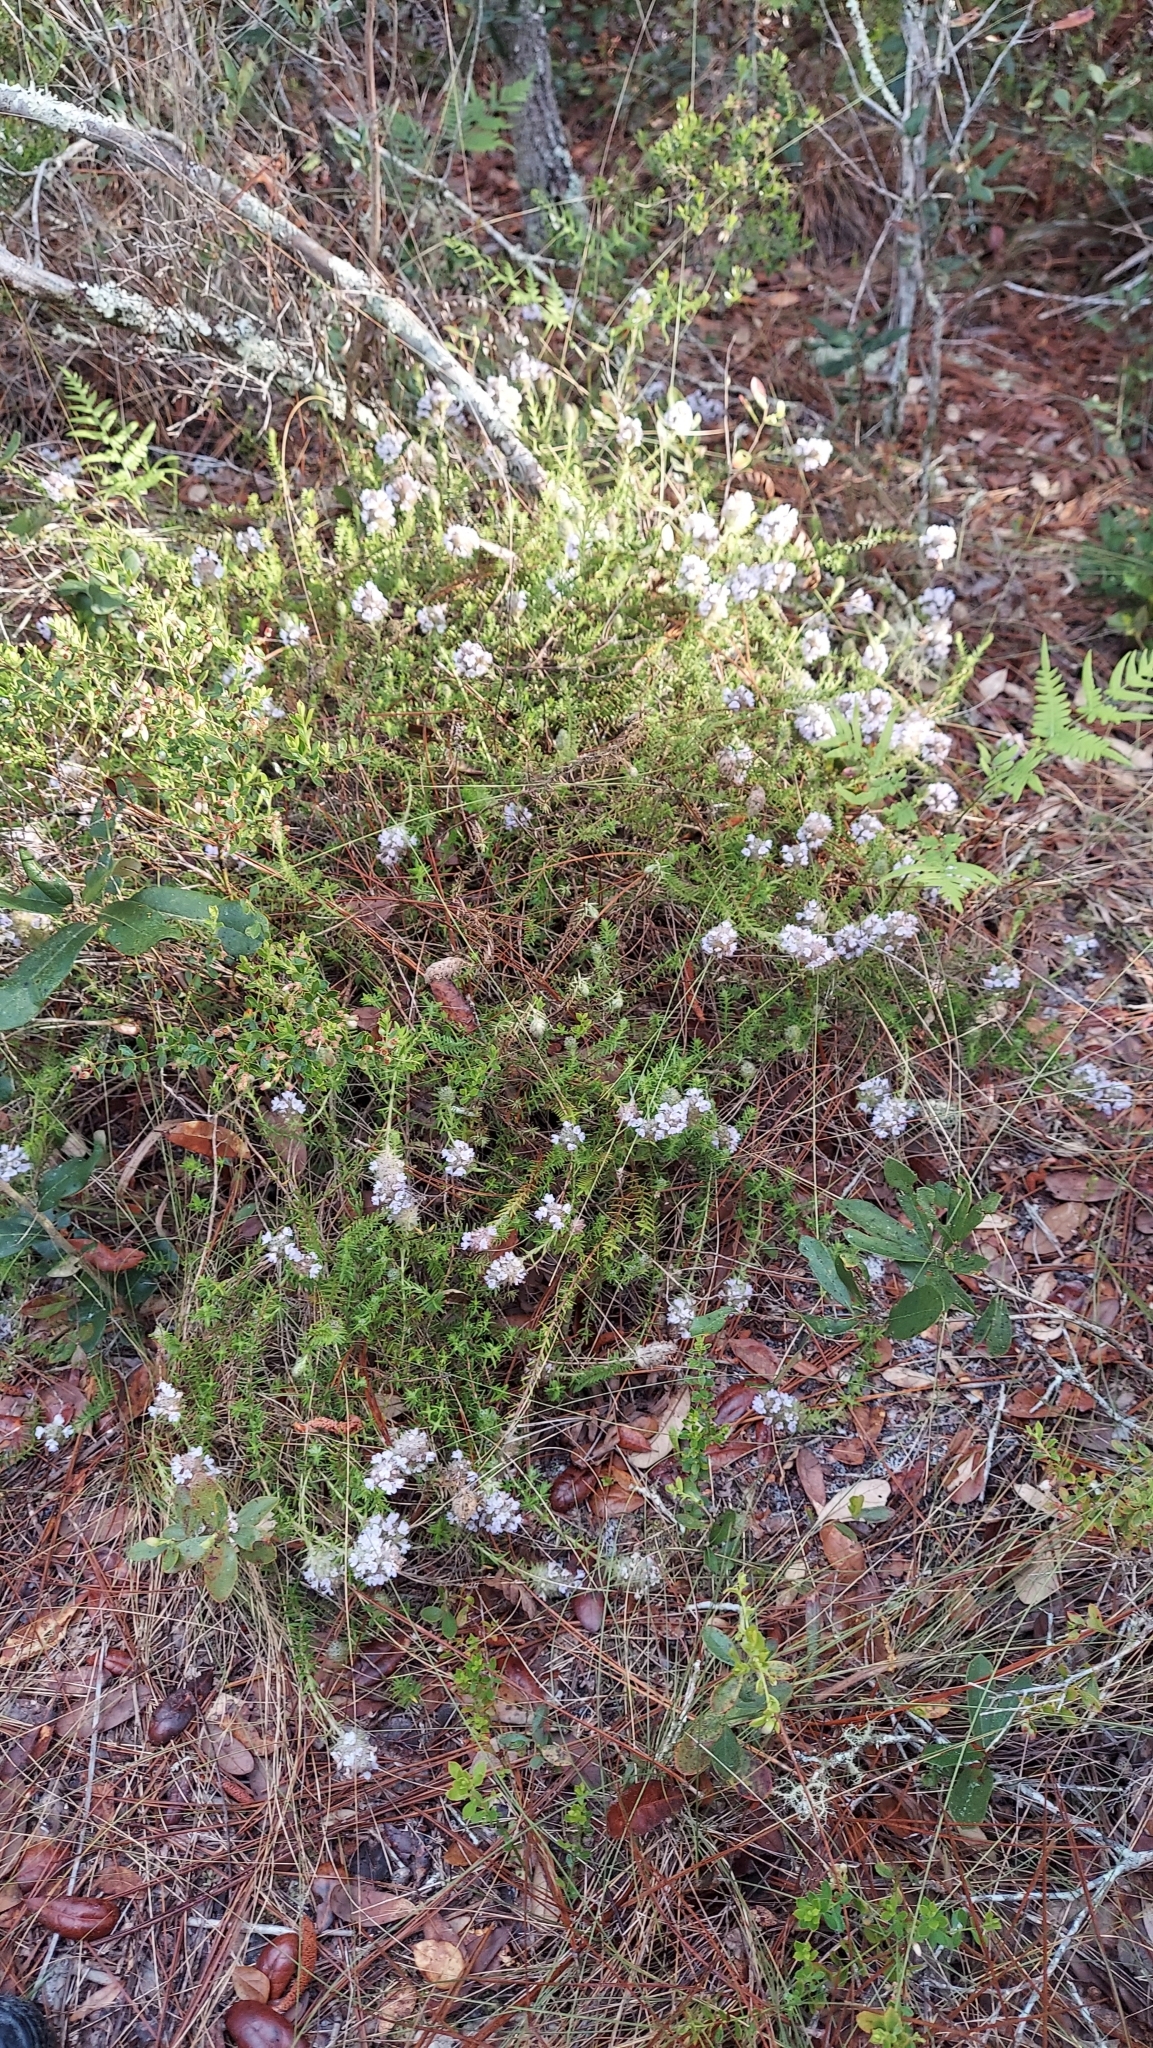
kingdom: Plantae
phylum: Tracheophyta
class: Magnoliopsida
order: Lamiales
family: Lamiaceae
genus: Piloblephis
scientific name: Piloblephis rigida
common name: Wild pennyroyal
